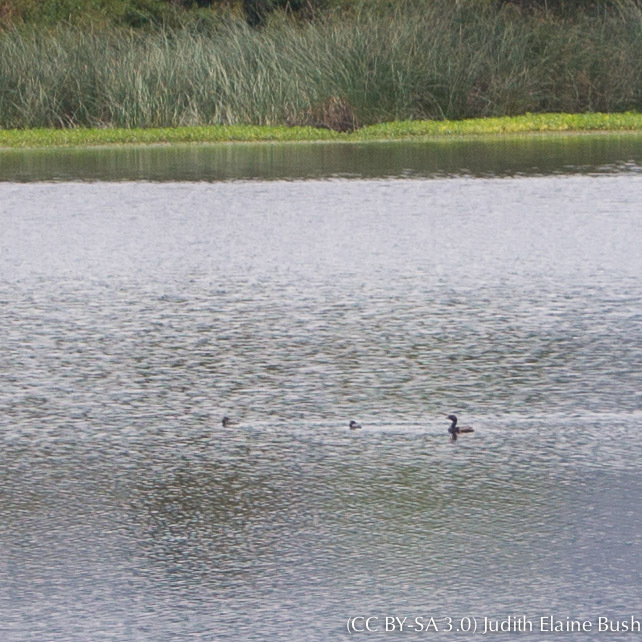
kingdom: Animalia
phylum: Chordata
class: Aves
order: Podicipediformes
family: Podicipedidae
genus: Podilymbus
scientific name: Podilymbus podiceps
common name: Pied-billed grebe
